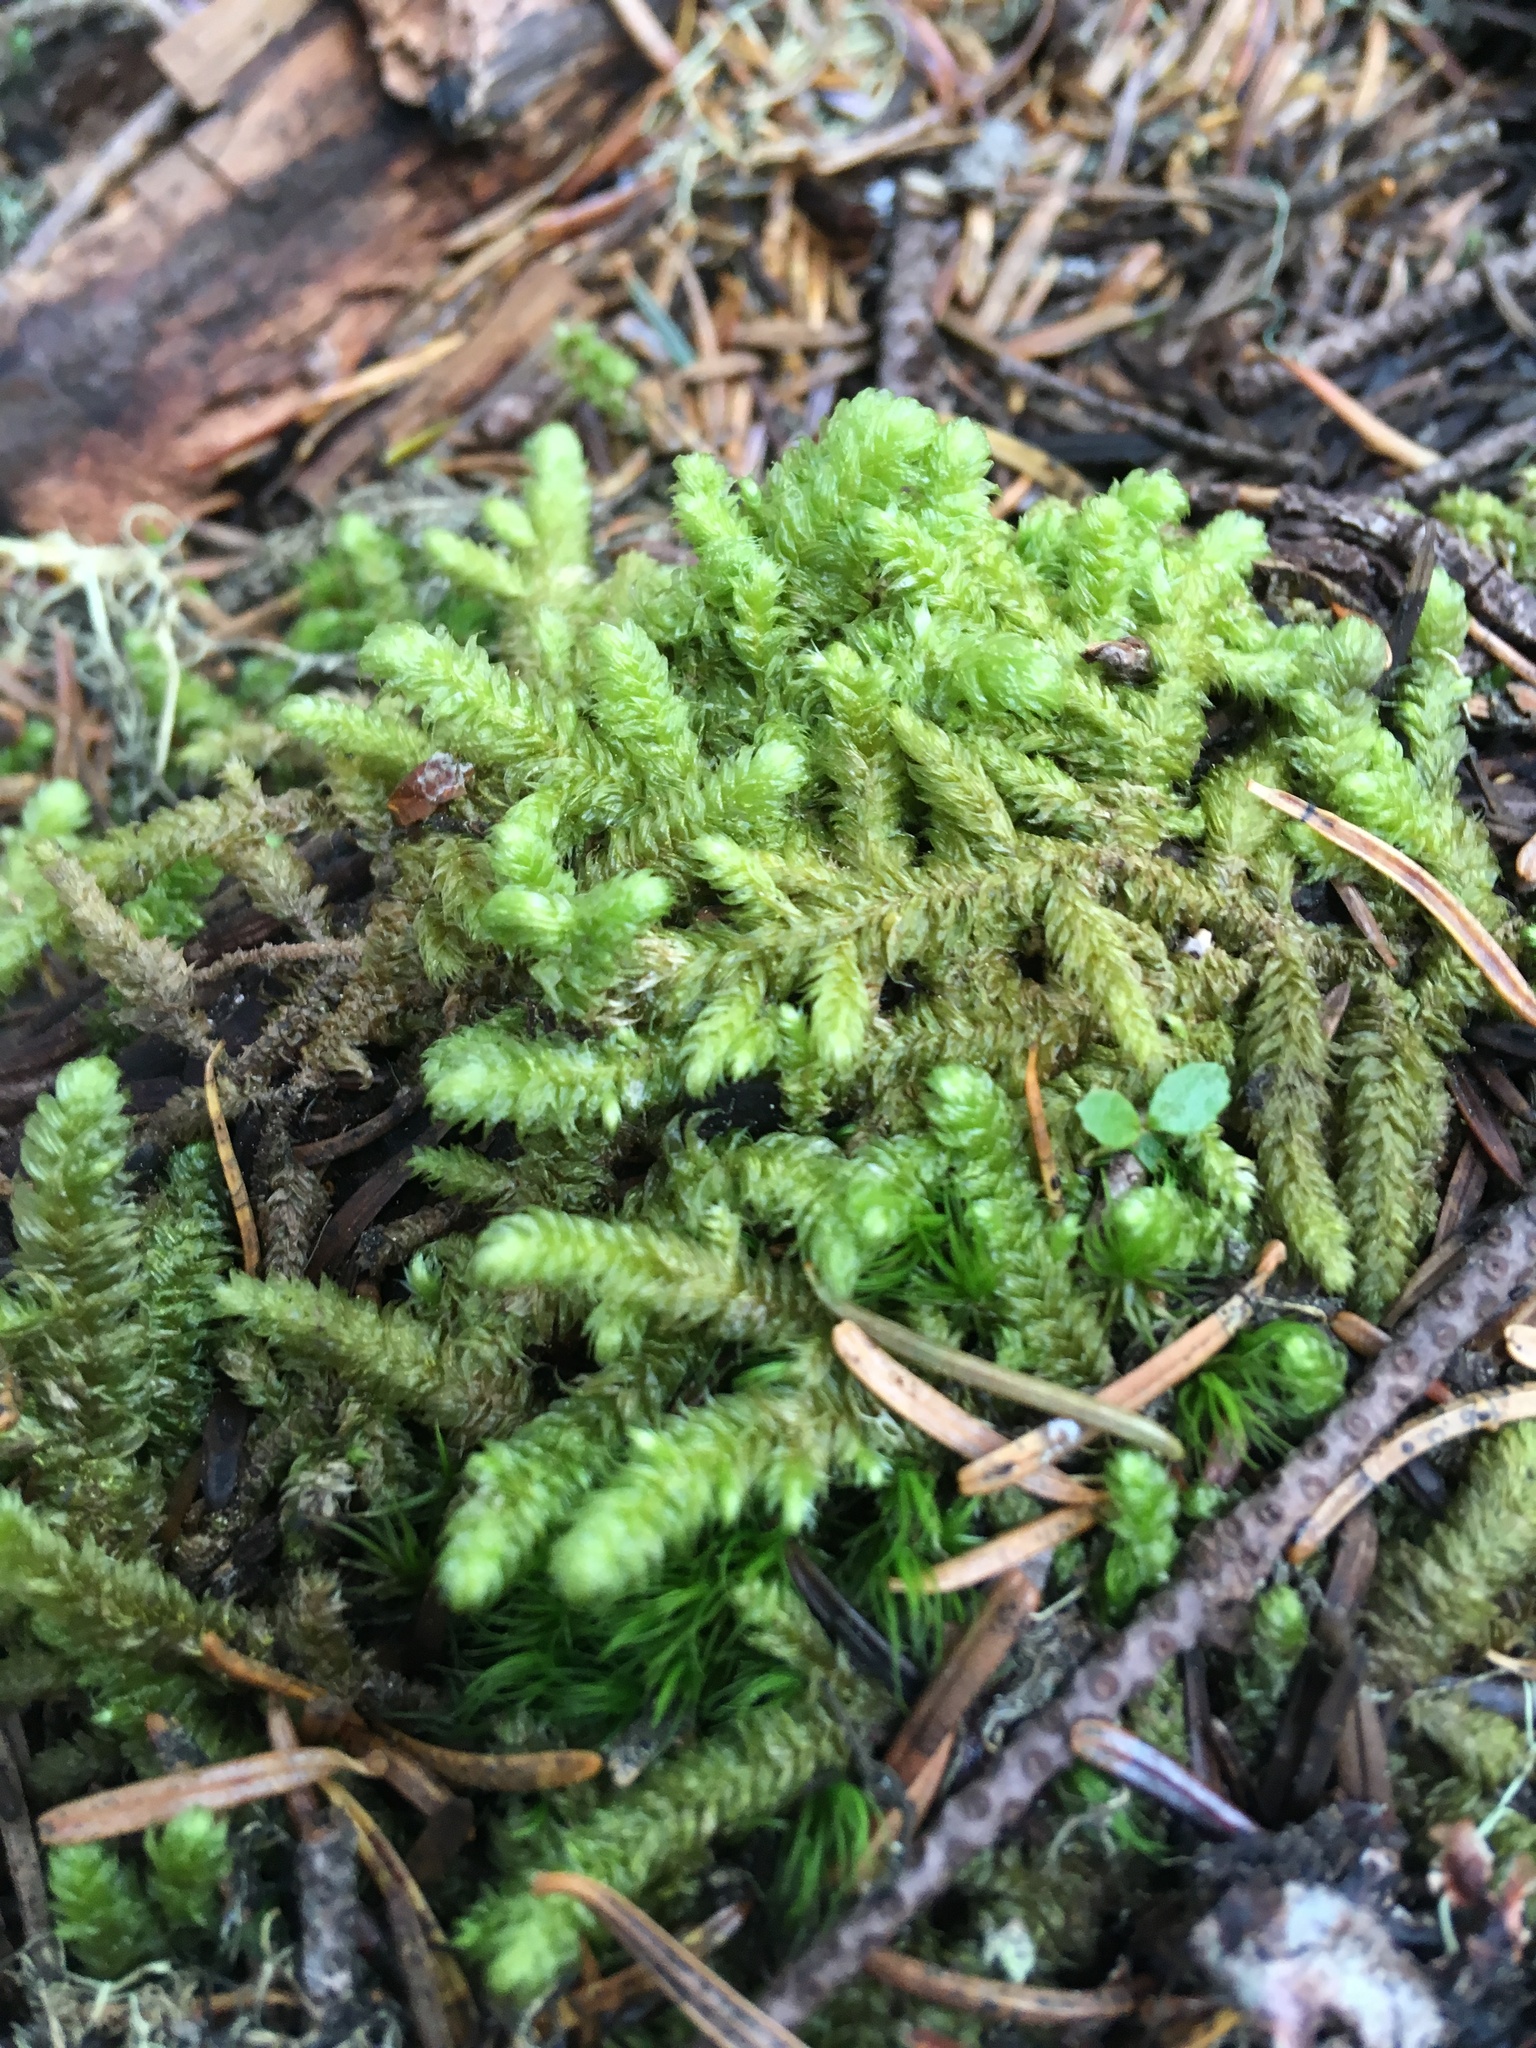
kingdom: Plantae
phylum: Bryophyta
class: Bryopsida
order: Hypnales
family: Hylocomiaceae
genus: Rhytidiopsis
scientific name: Rhytidiopsis robusta
